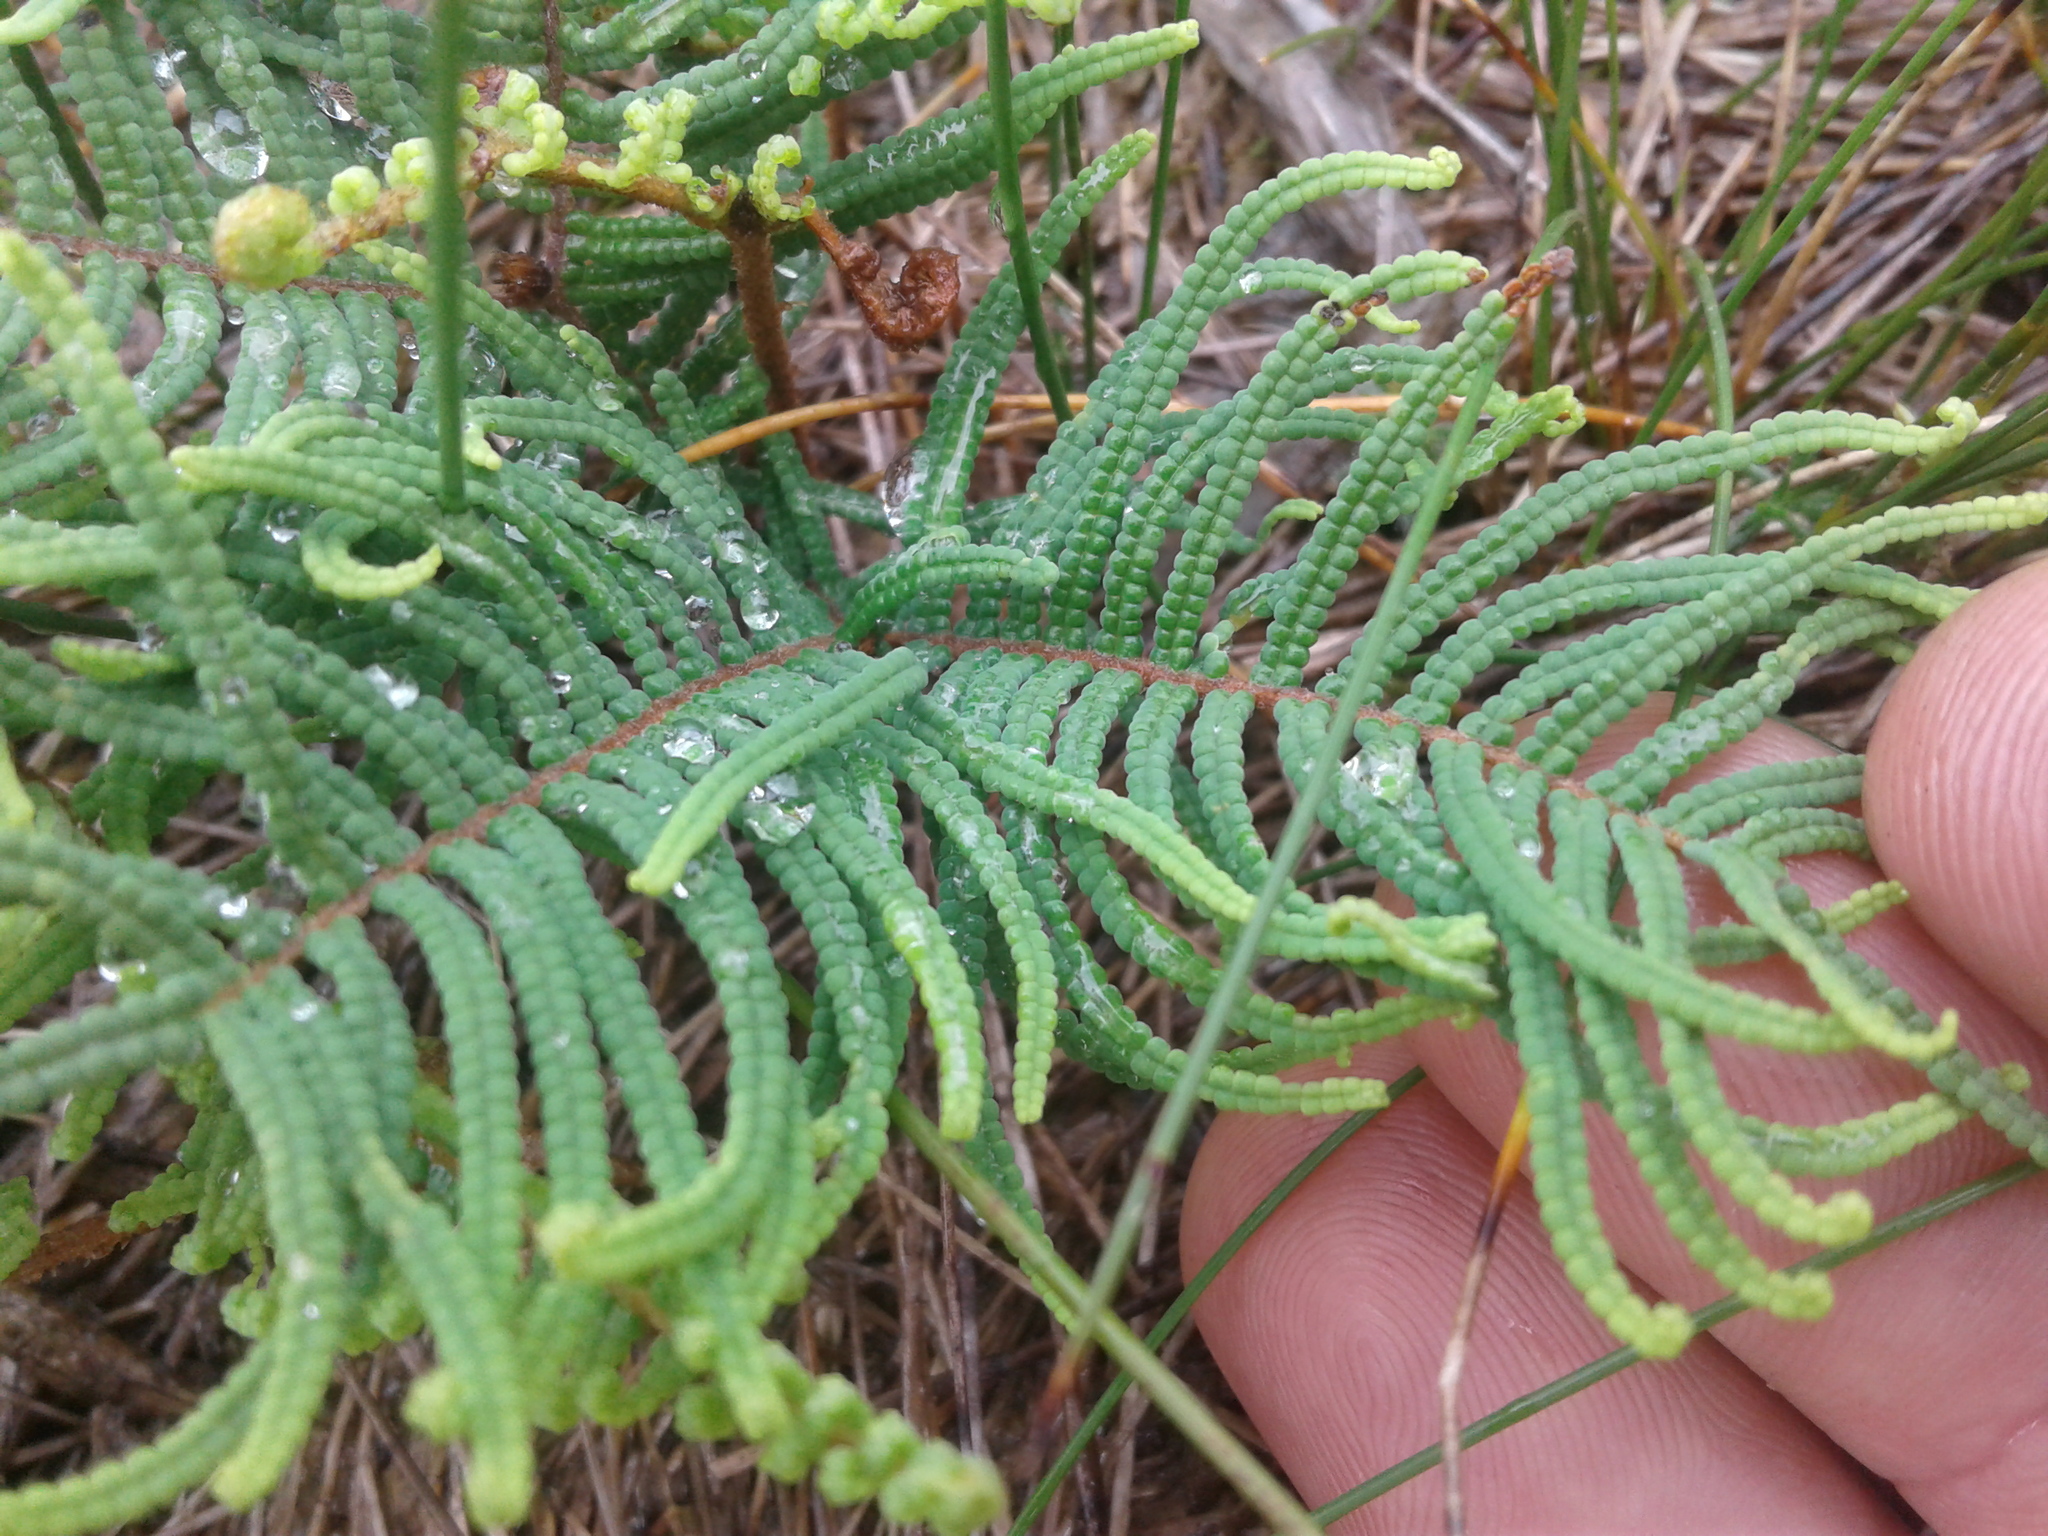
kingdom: Plantae
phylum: Tracheophyta
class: Polypodiopsida
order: Gleicheniales
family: Gleicheniaceae
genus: Gleichenia
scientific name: Gleichenia dicarpa
